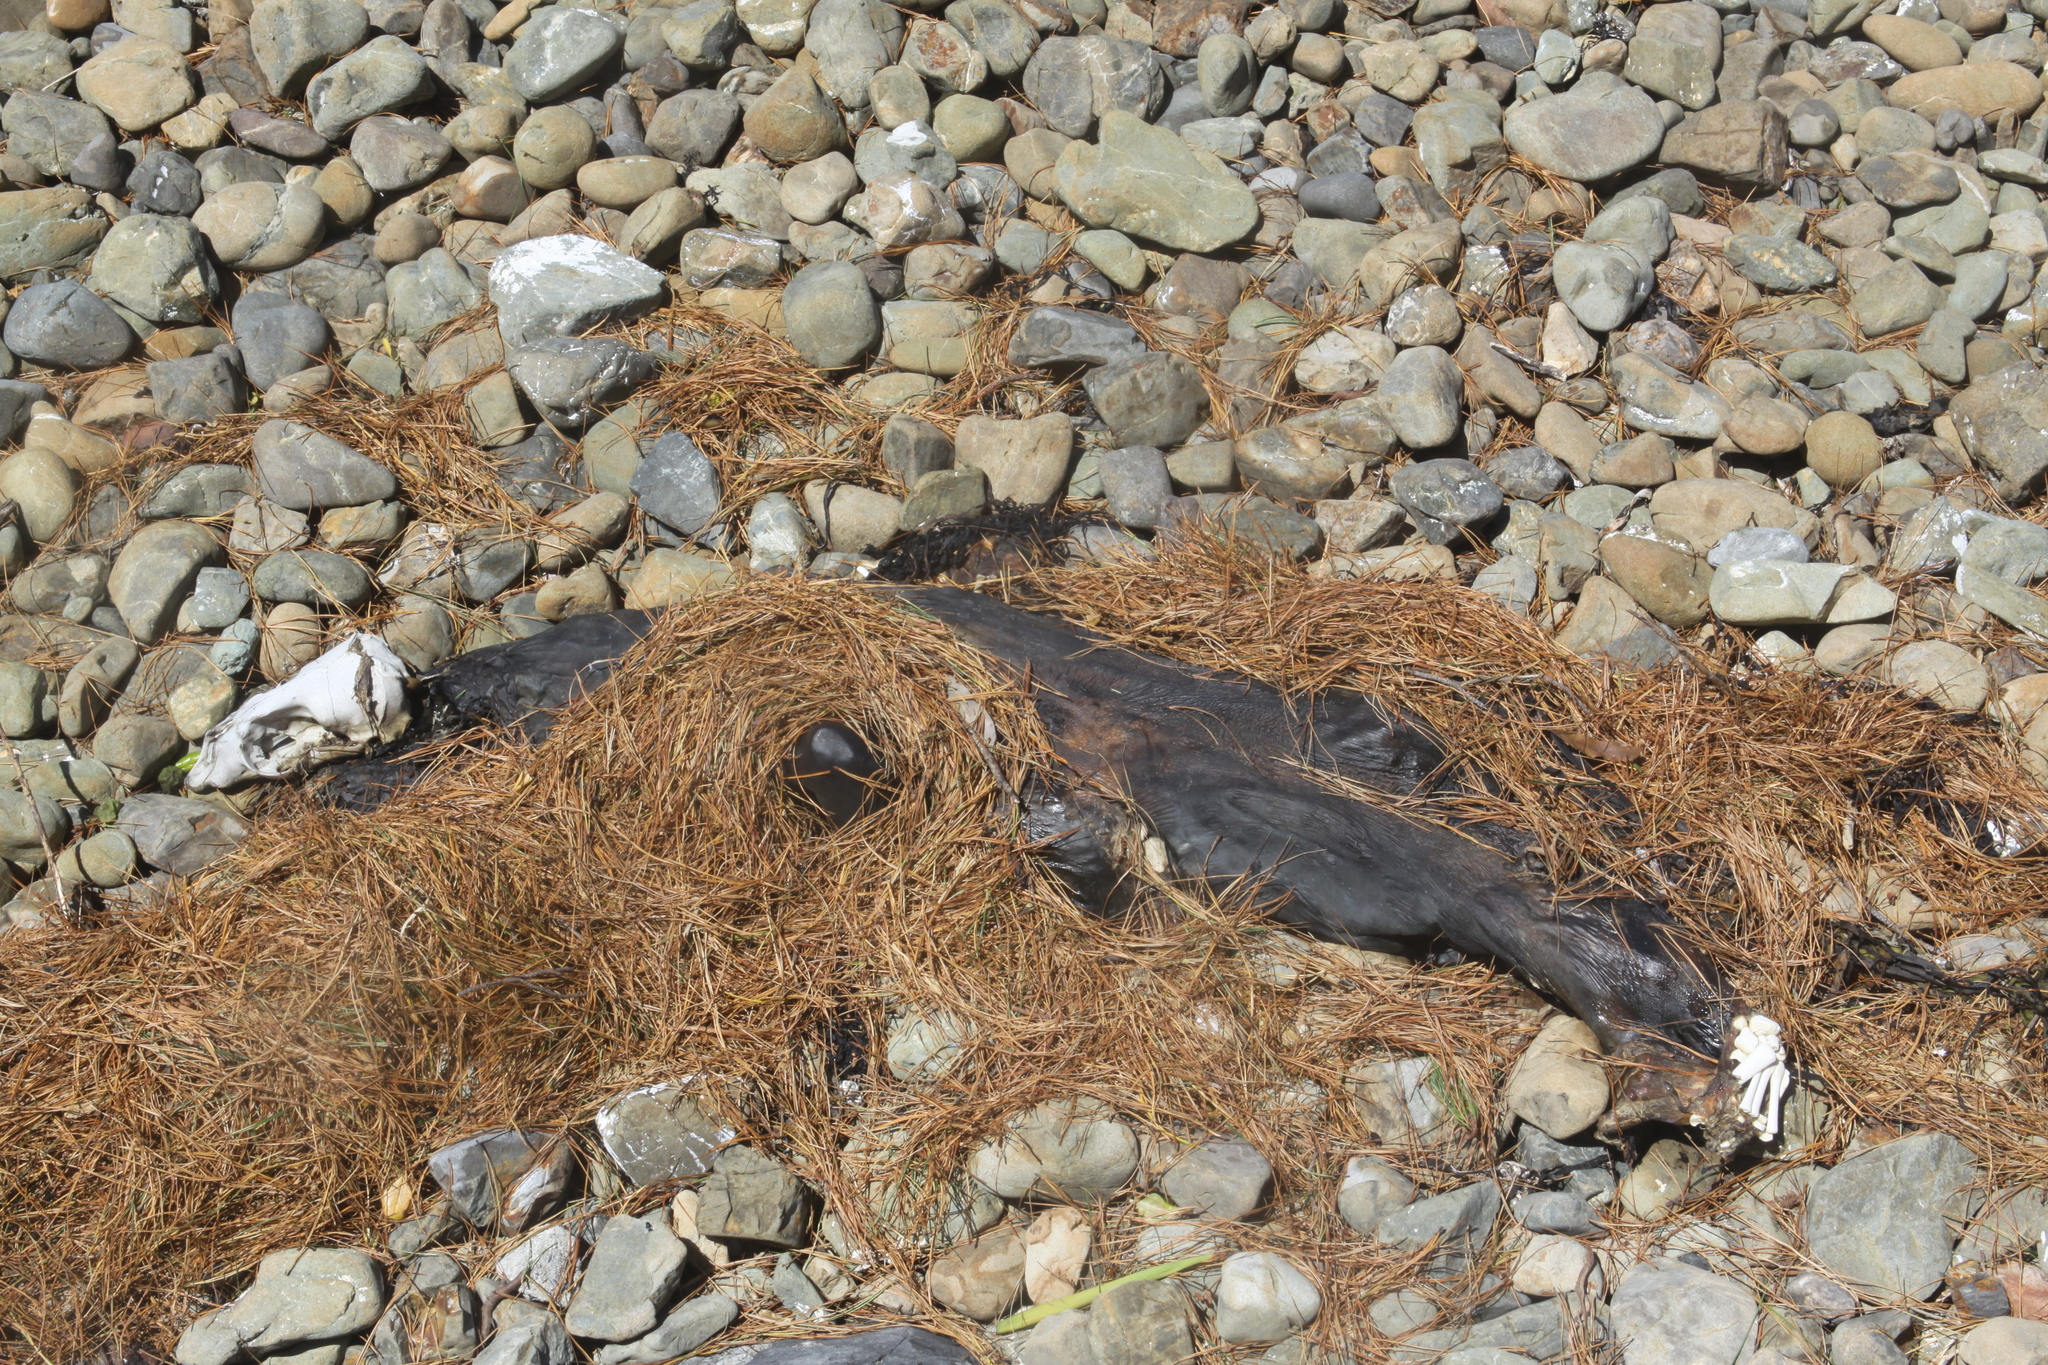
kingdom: Animalia
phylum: Chordata
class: Mammalia
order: Carnivora
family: Otariidae
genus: Arctocephalus
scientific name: Arctocephalus forsteri
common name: New zealand fur seal
